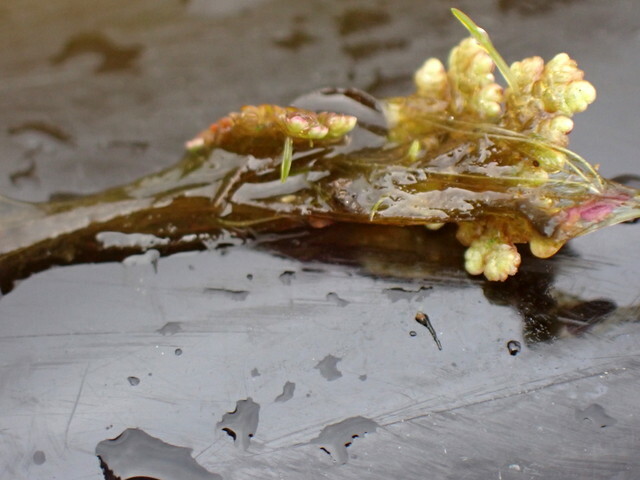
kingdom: Plantae
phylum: Tracheophyta
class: Polypodiopsida
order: Salviniales
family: Salviniaceae
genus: Azolla
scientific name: Azolla caroliniana
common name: Carolina mosquitofern
